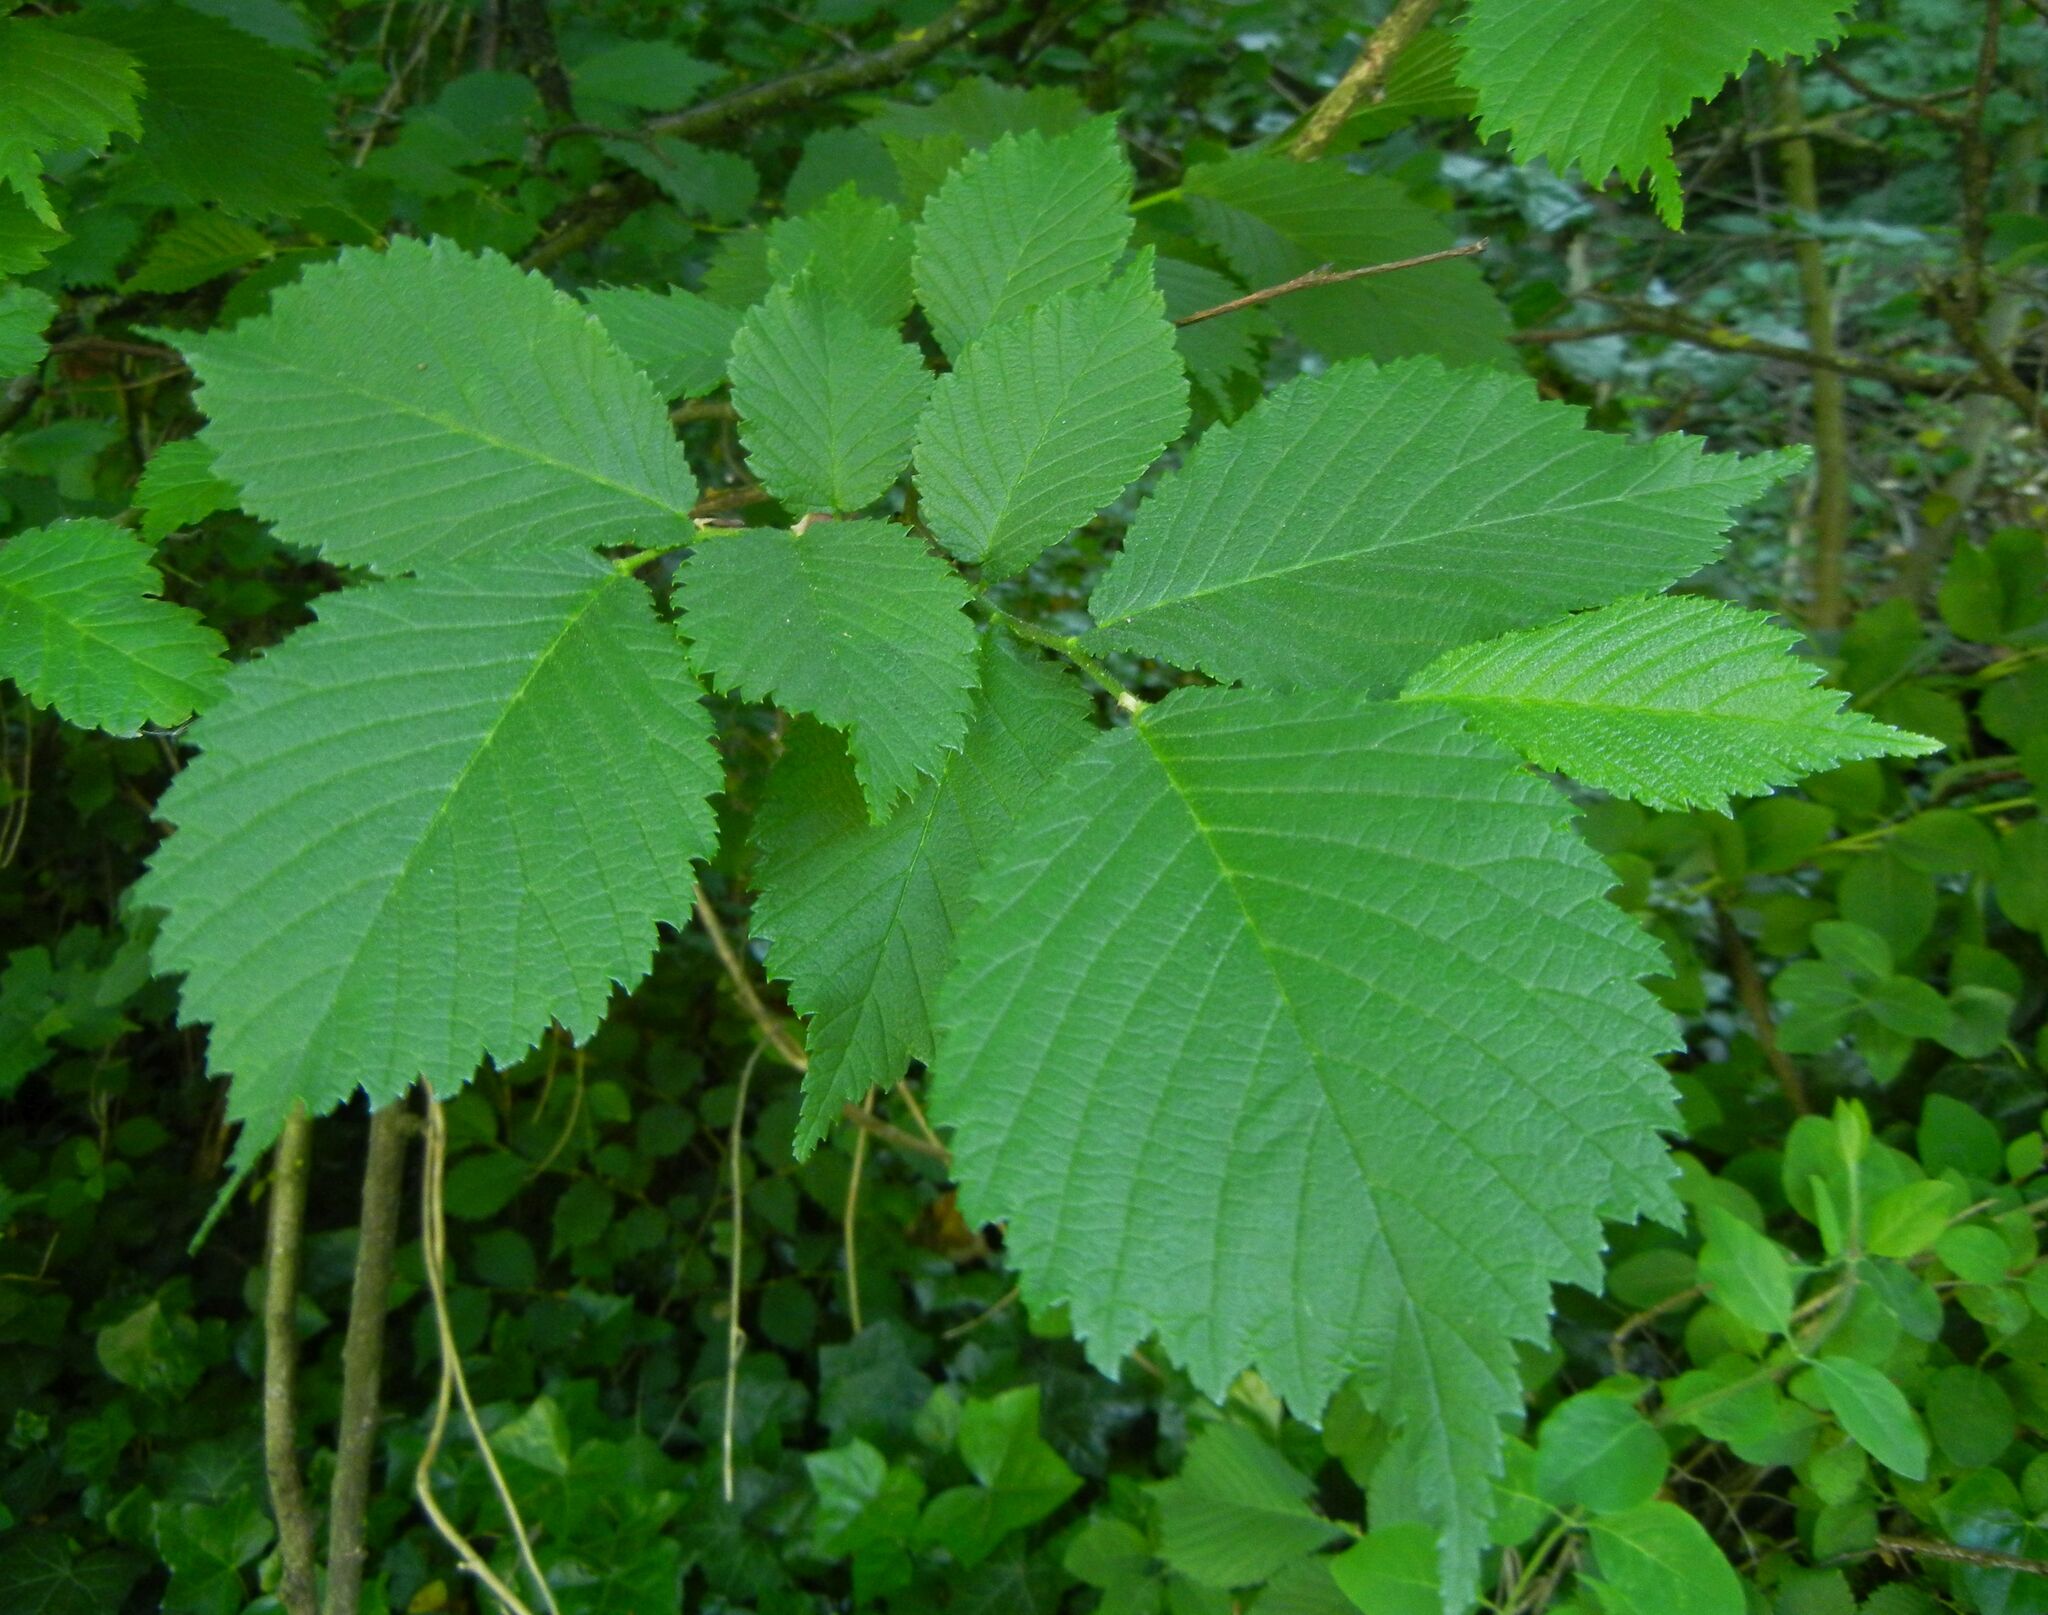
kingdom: Plantae
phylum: Tracheophyta
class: Magnoliopsida
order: Rosales
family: Ulmaceae
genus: Ulmus
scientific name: Ulmus glabra
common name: Wych elm
